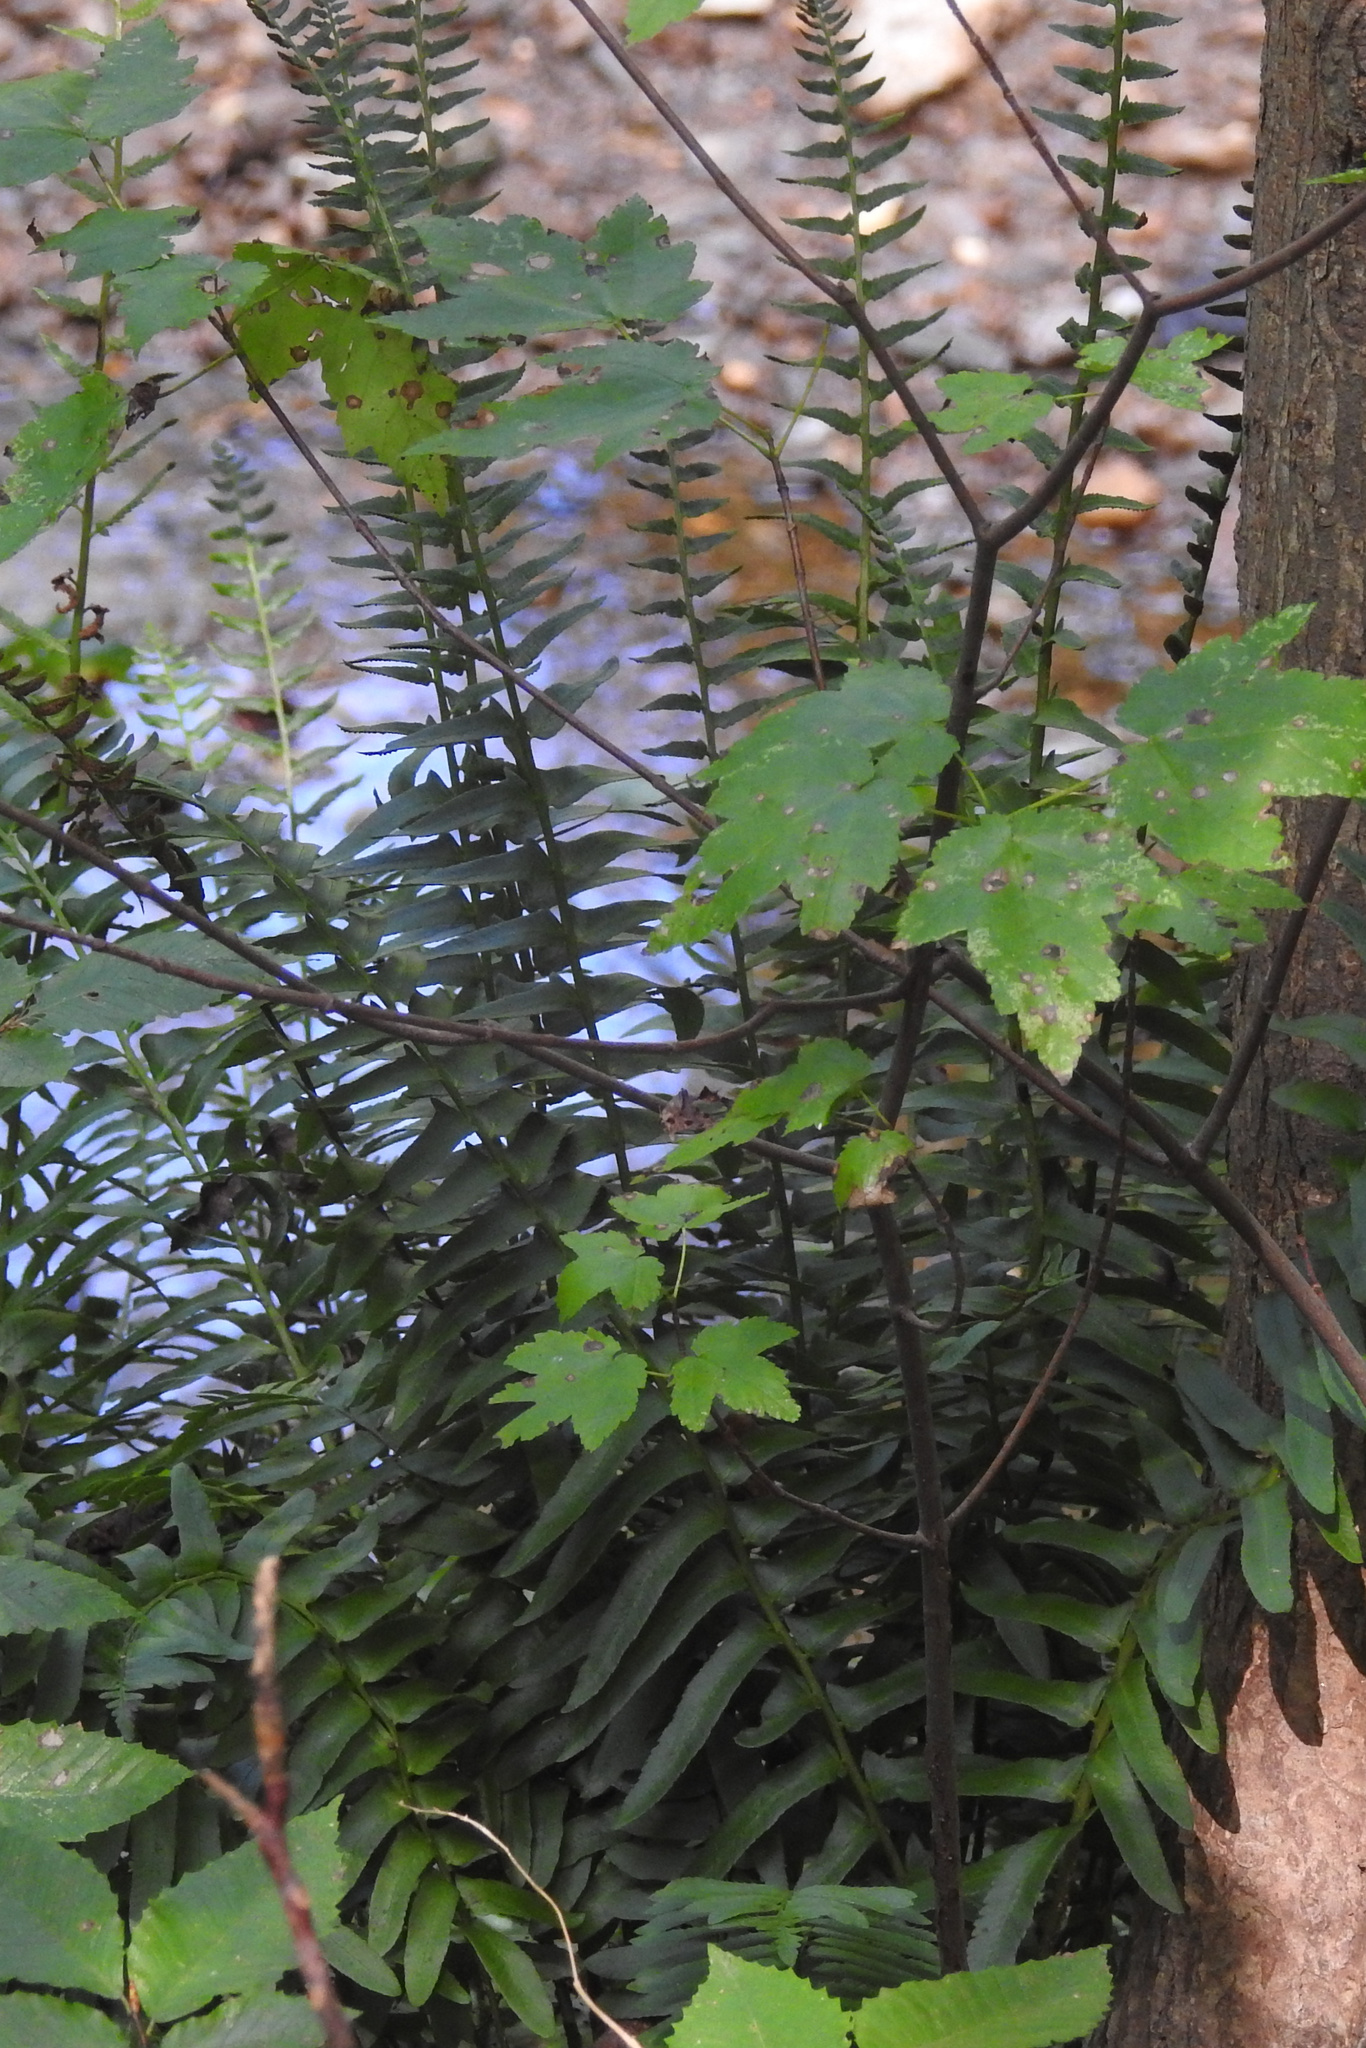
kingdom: Plantae
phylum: Tracheophyta
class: Polypodiopsida
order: Polypodiales
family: Dryopteridaceae
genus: Polystichum
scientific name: Polystichum acrostichoides
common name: Christmas fern
